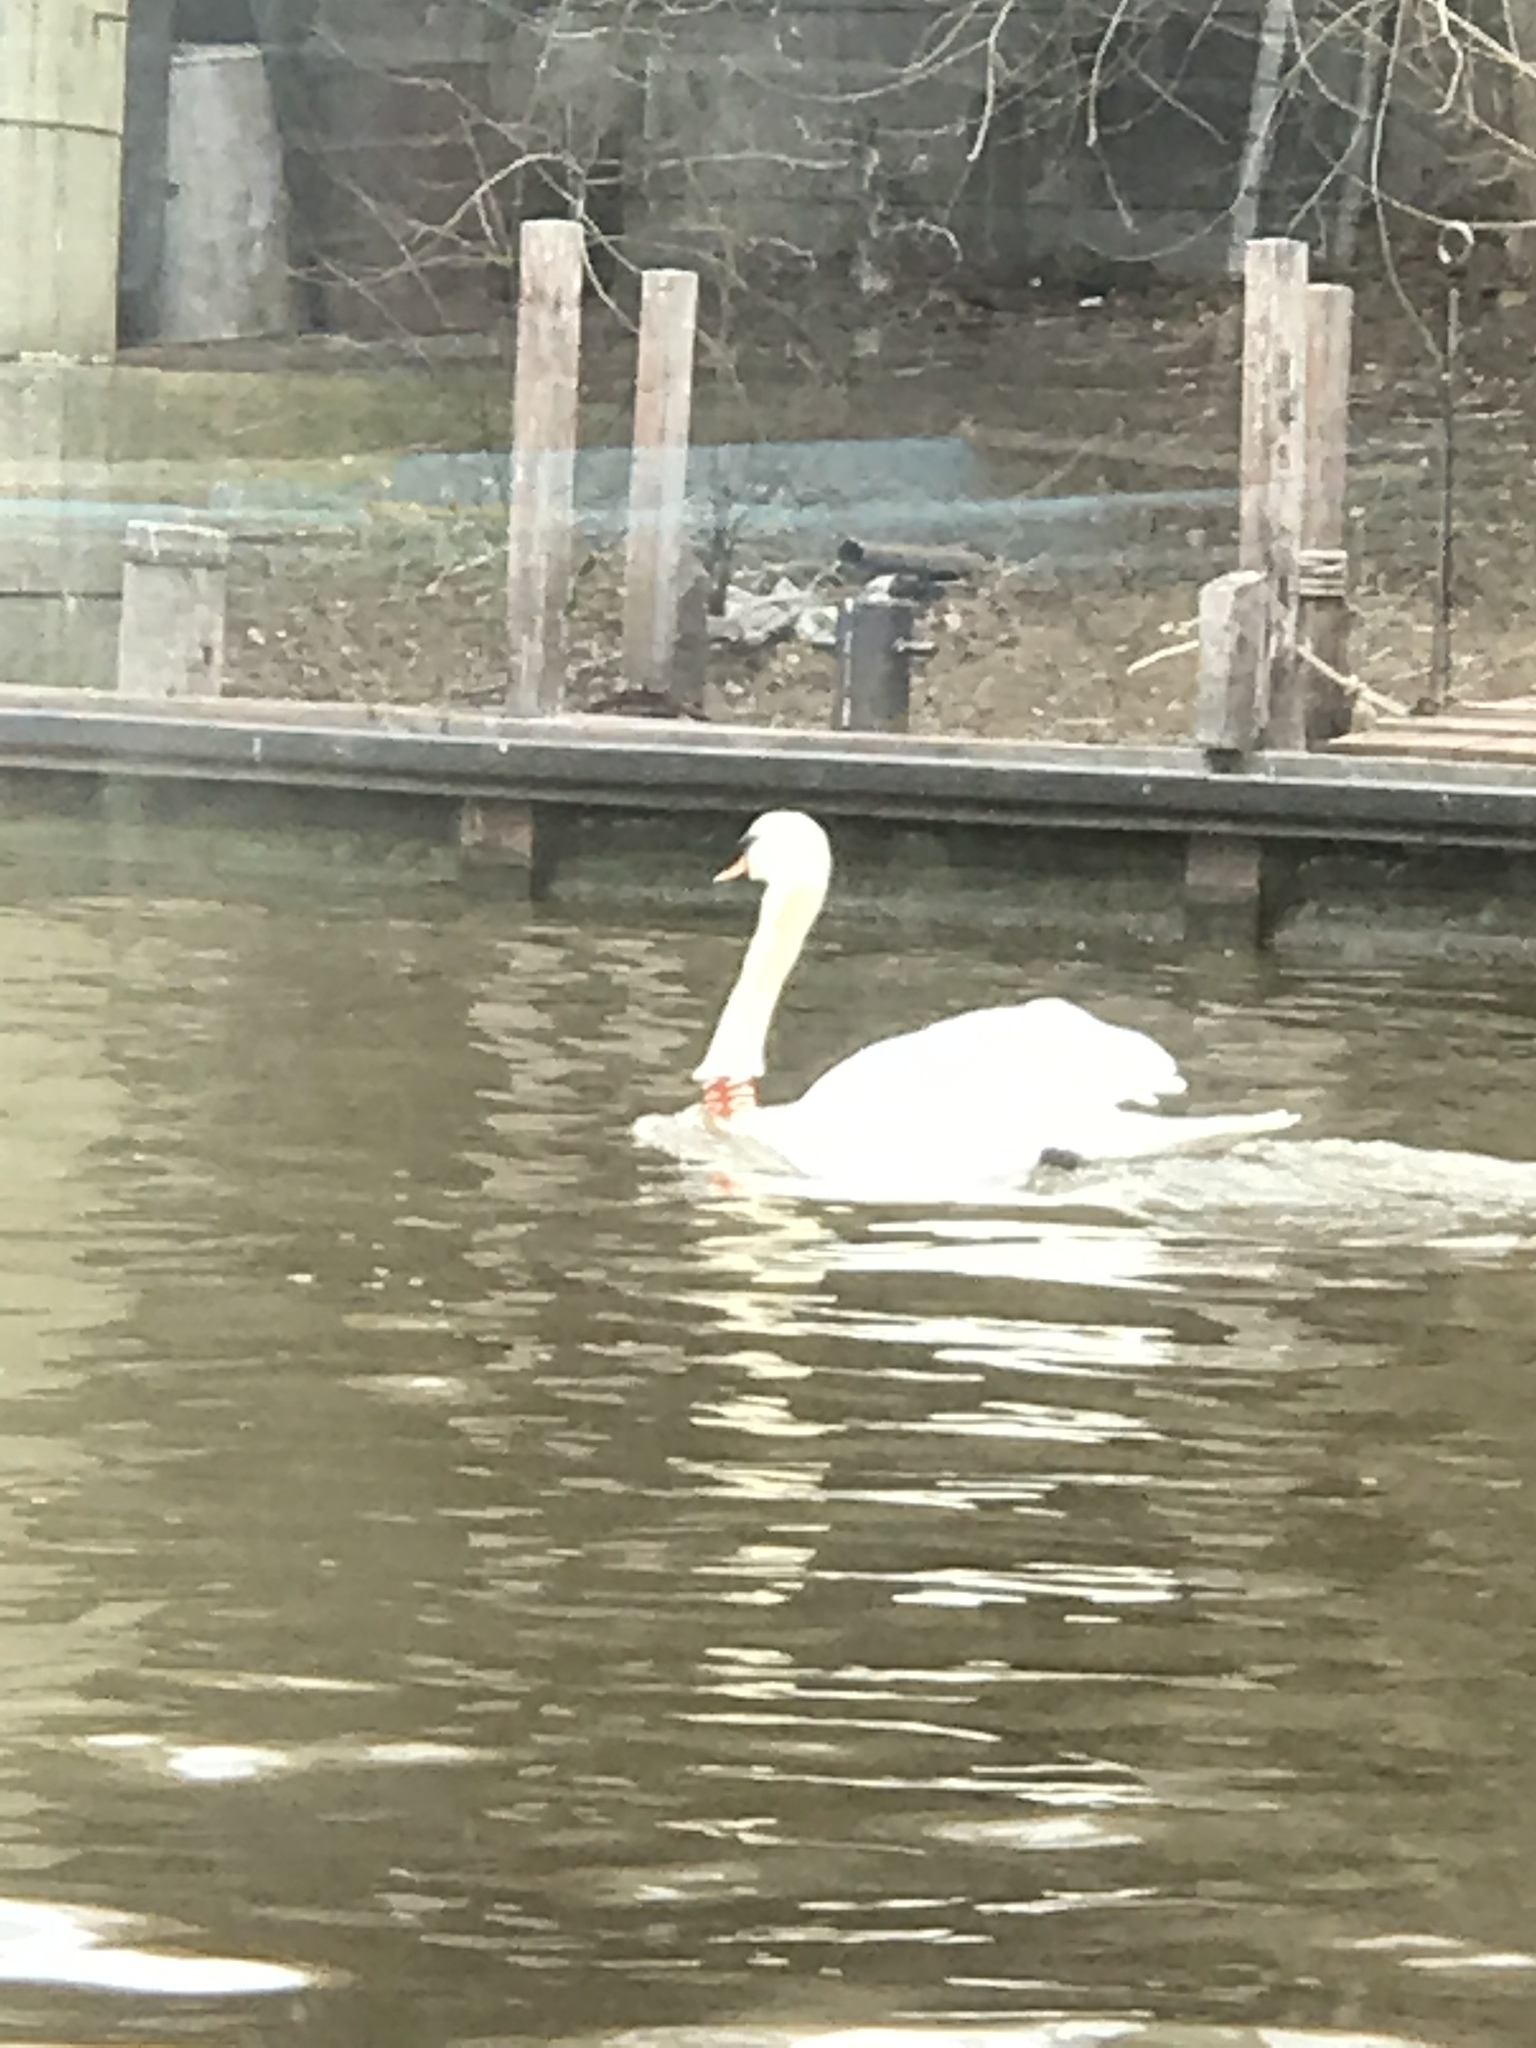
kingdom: Animalia
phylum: Chordata
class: Aves
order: Anseriformes
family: Anatidae
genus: Cygnus
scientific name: Cygnus olor
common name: Mute swan
